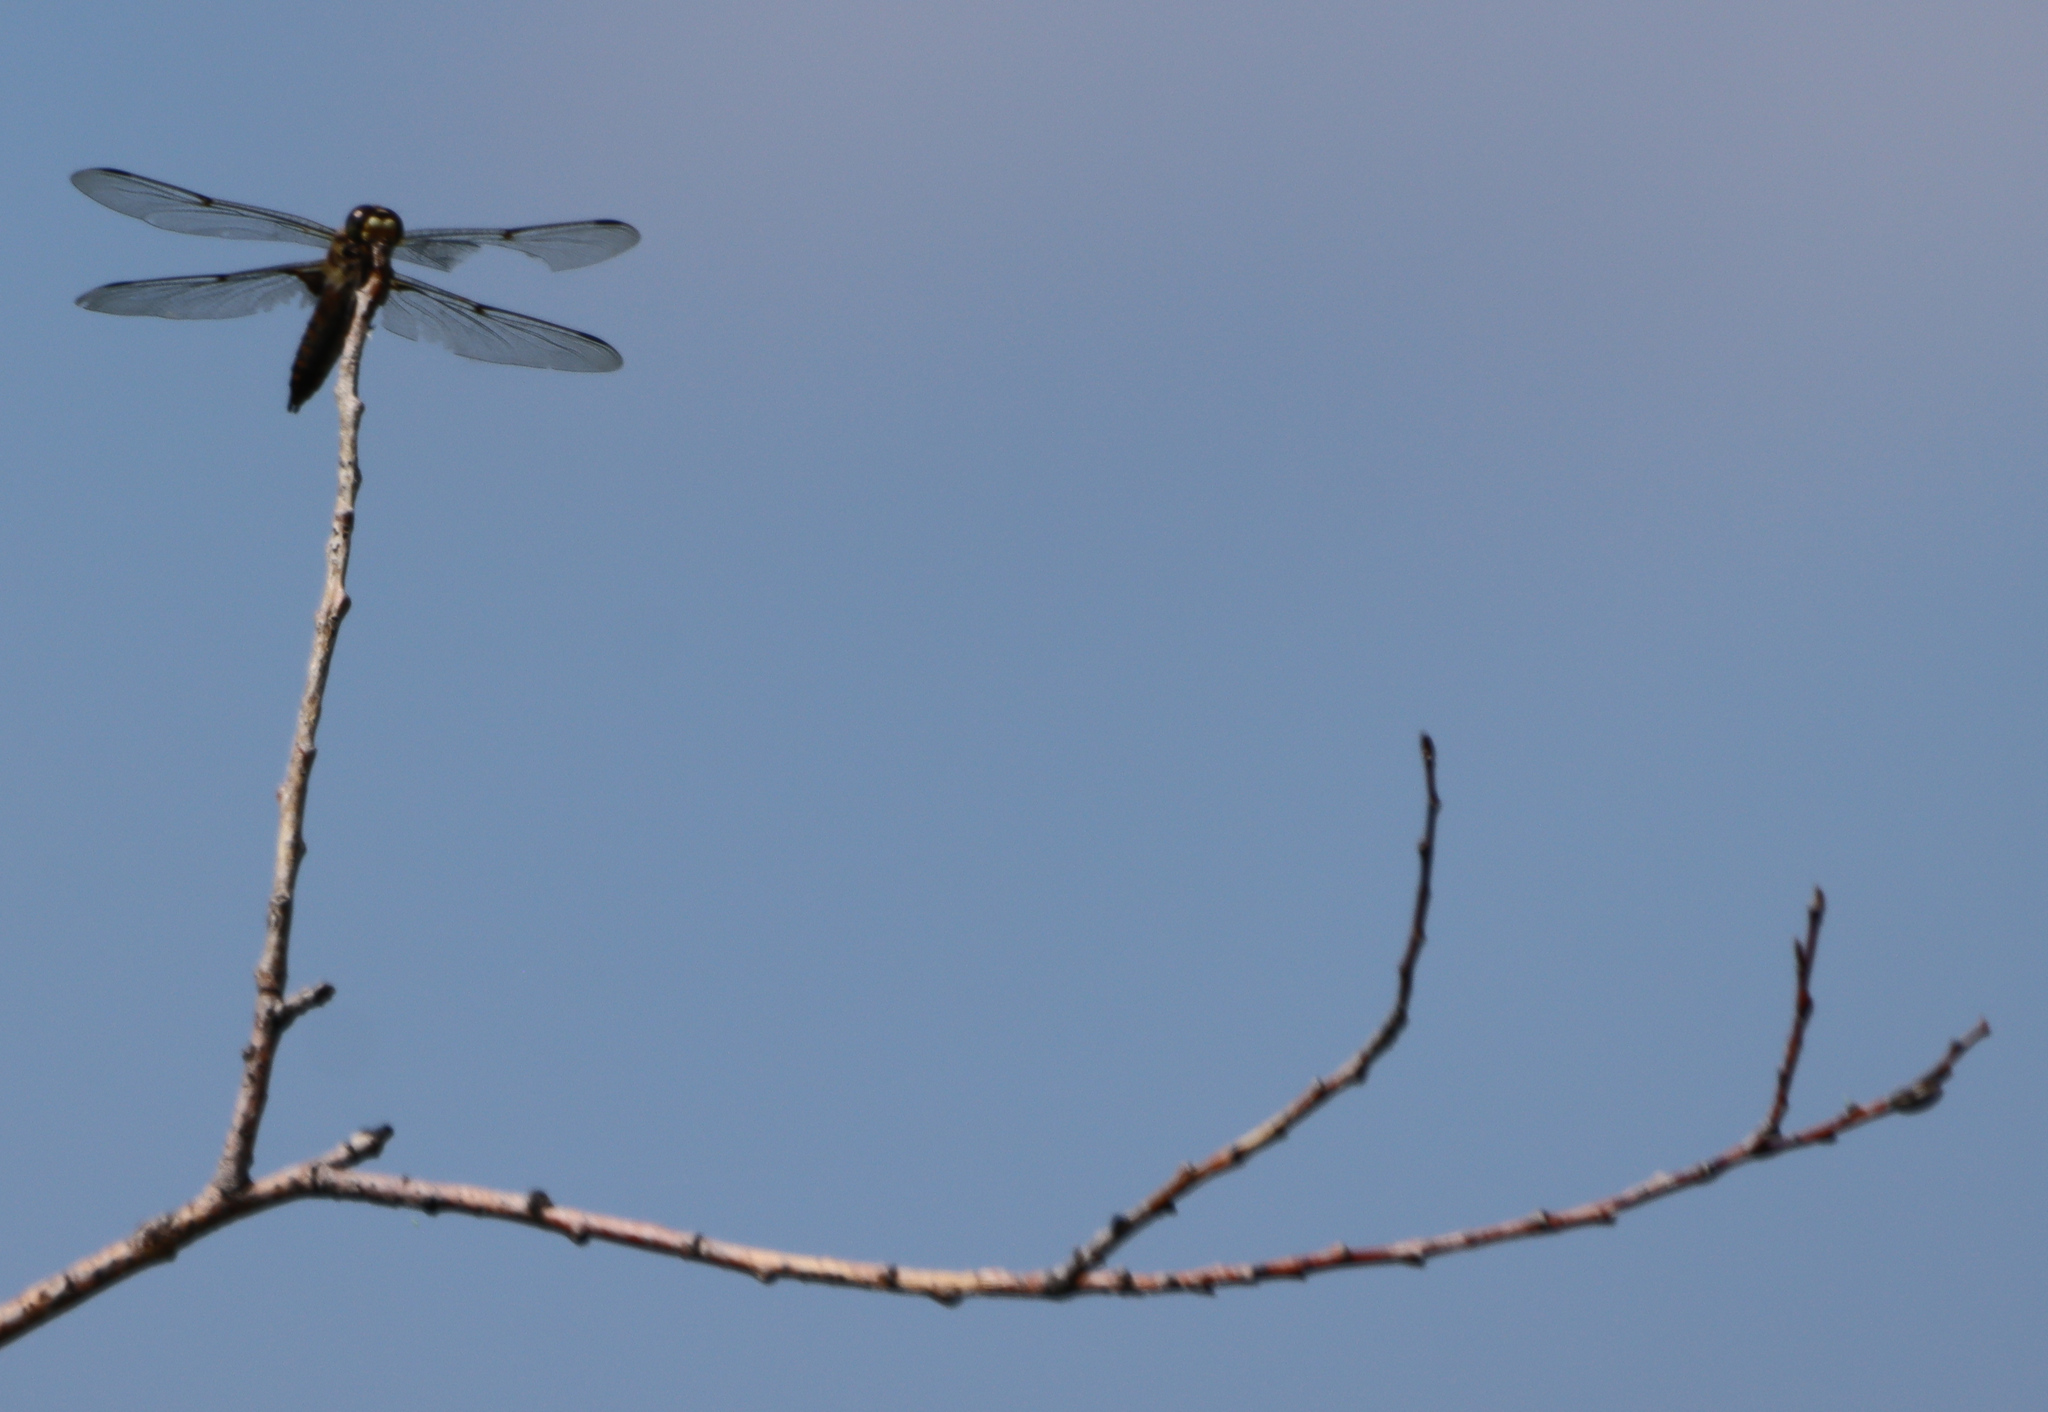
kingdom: Animalia
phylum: Arthropoda
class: Insecta
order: Odonata
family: Libellulidae
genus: Libellula
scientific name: Libellula quadrimaculata
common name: Four-spotted chaser
